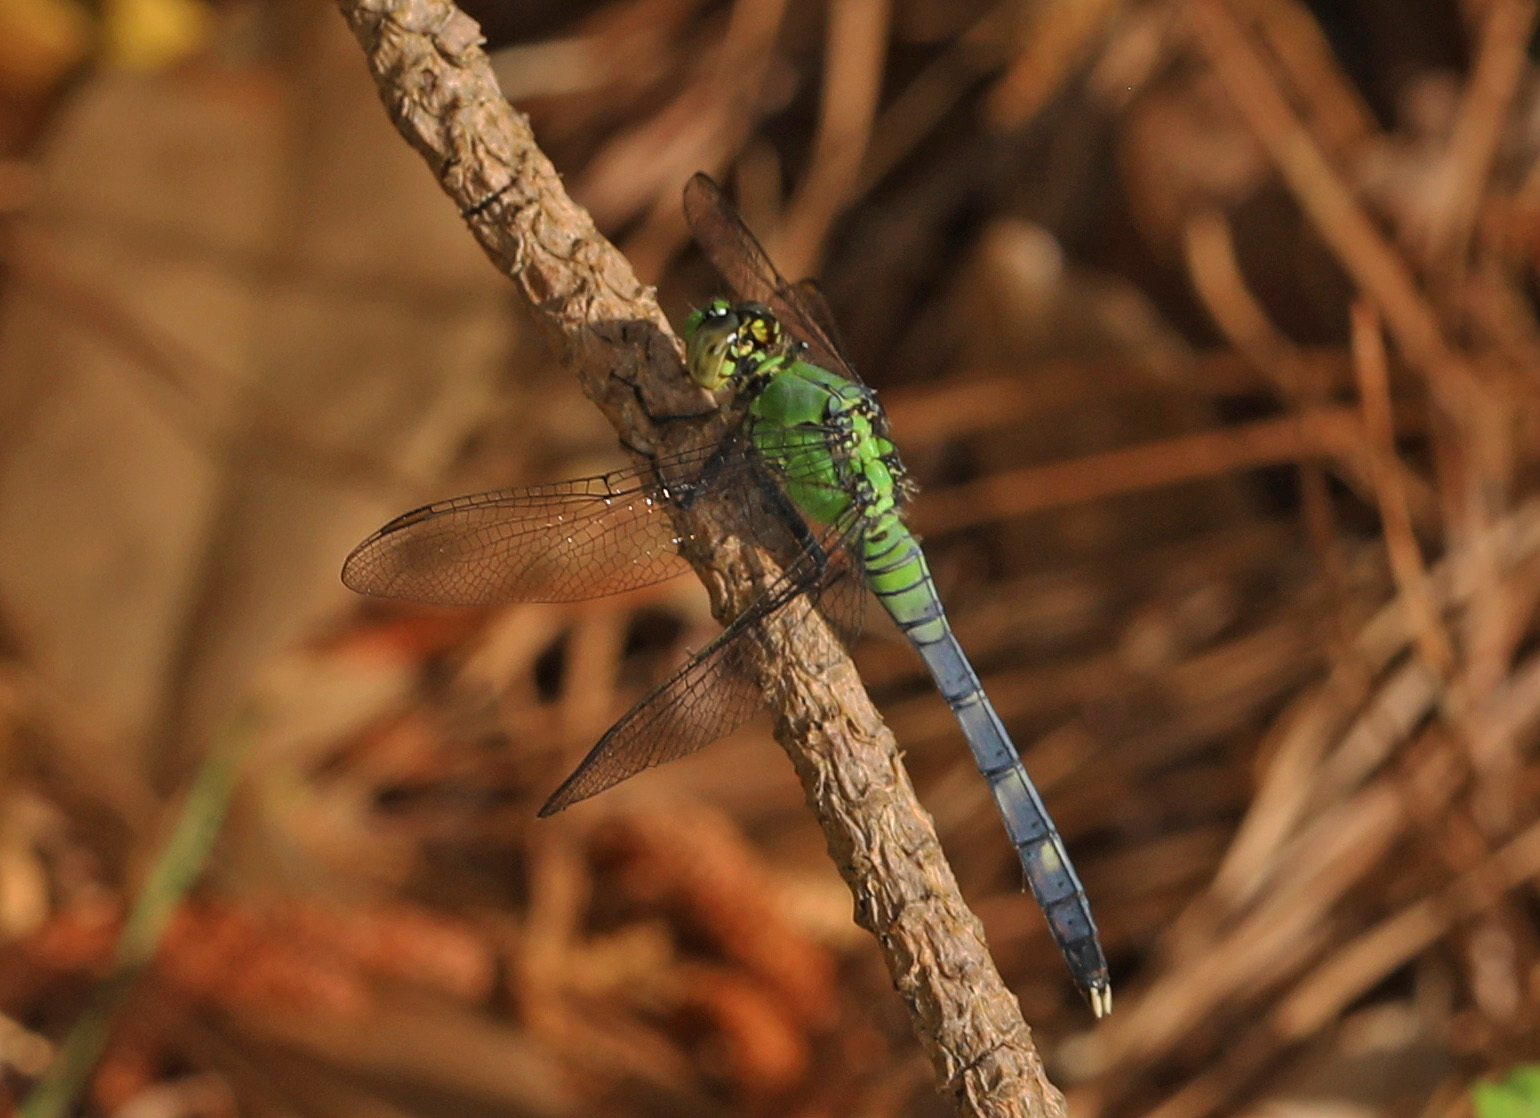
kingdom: Animalia
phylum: Arthropoda
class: Insecta
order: Odonata
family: Libellulidae
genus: Erythemis
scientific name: Erythemis simplicicollis
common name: Eastern pondhawk
